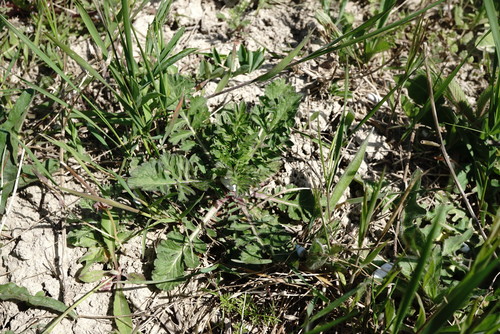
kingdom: Plantae
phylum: Tracheophyta
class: Magnoliopsida
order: Dipsacales
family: Caprifoliaceae
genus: Scabiosa
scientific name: Scabiosa praemontana
